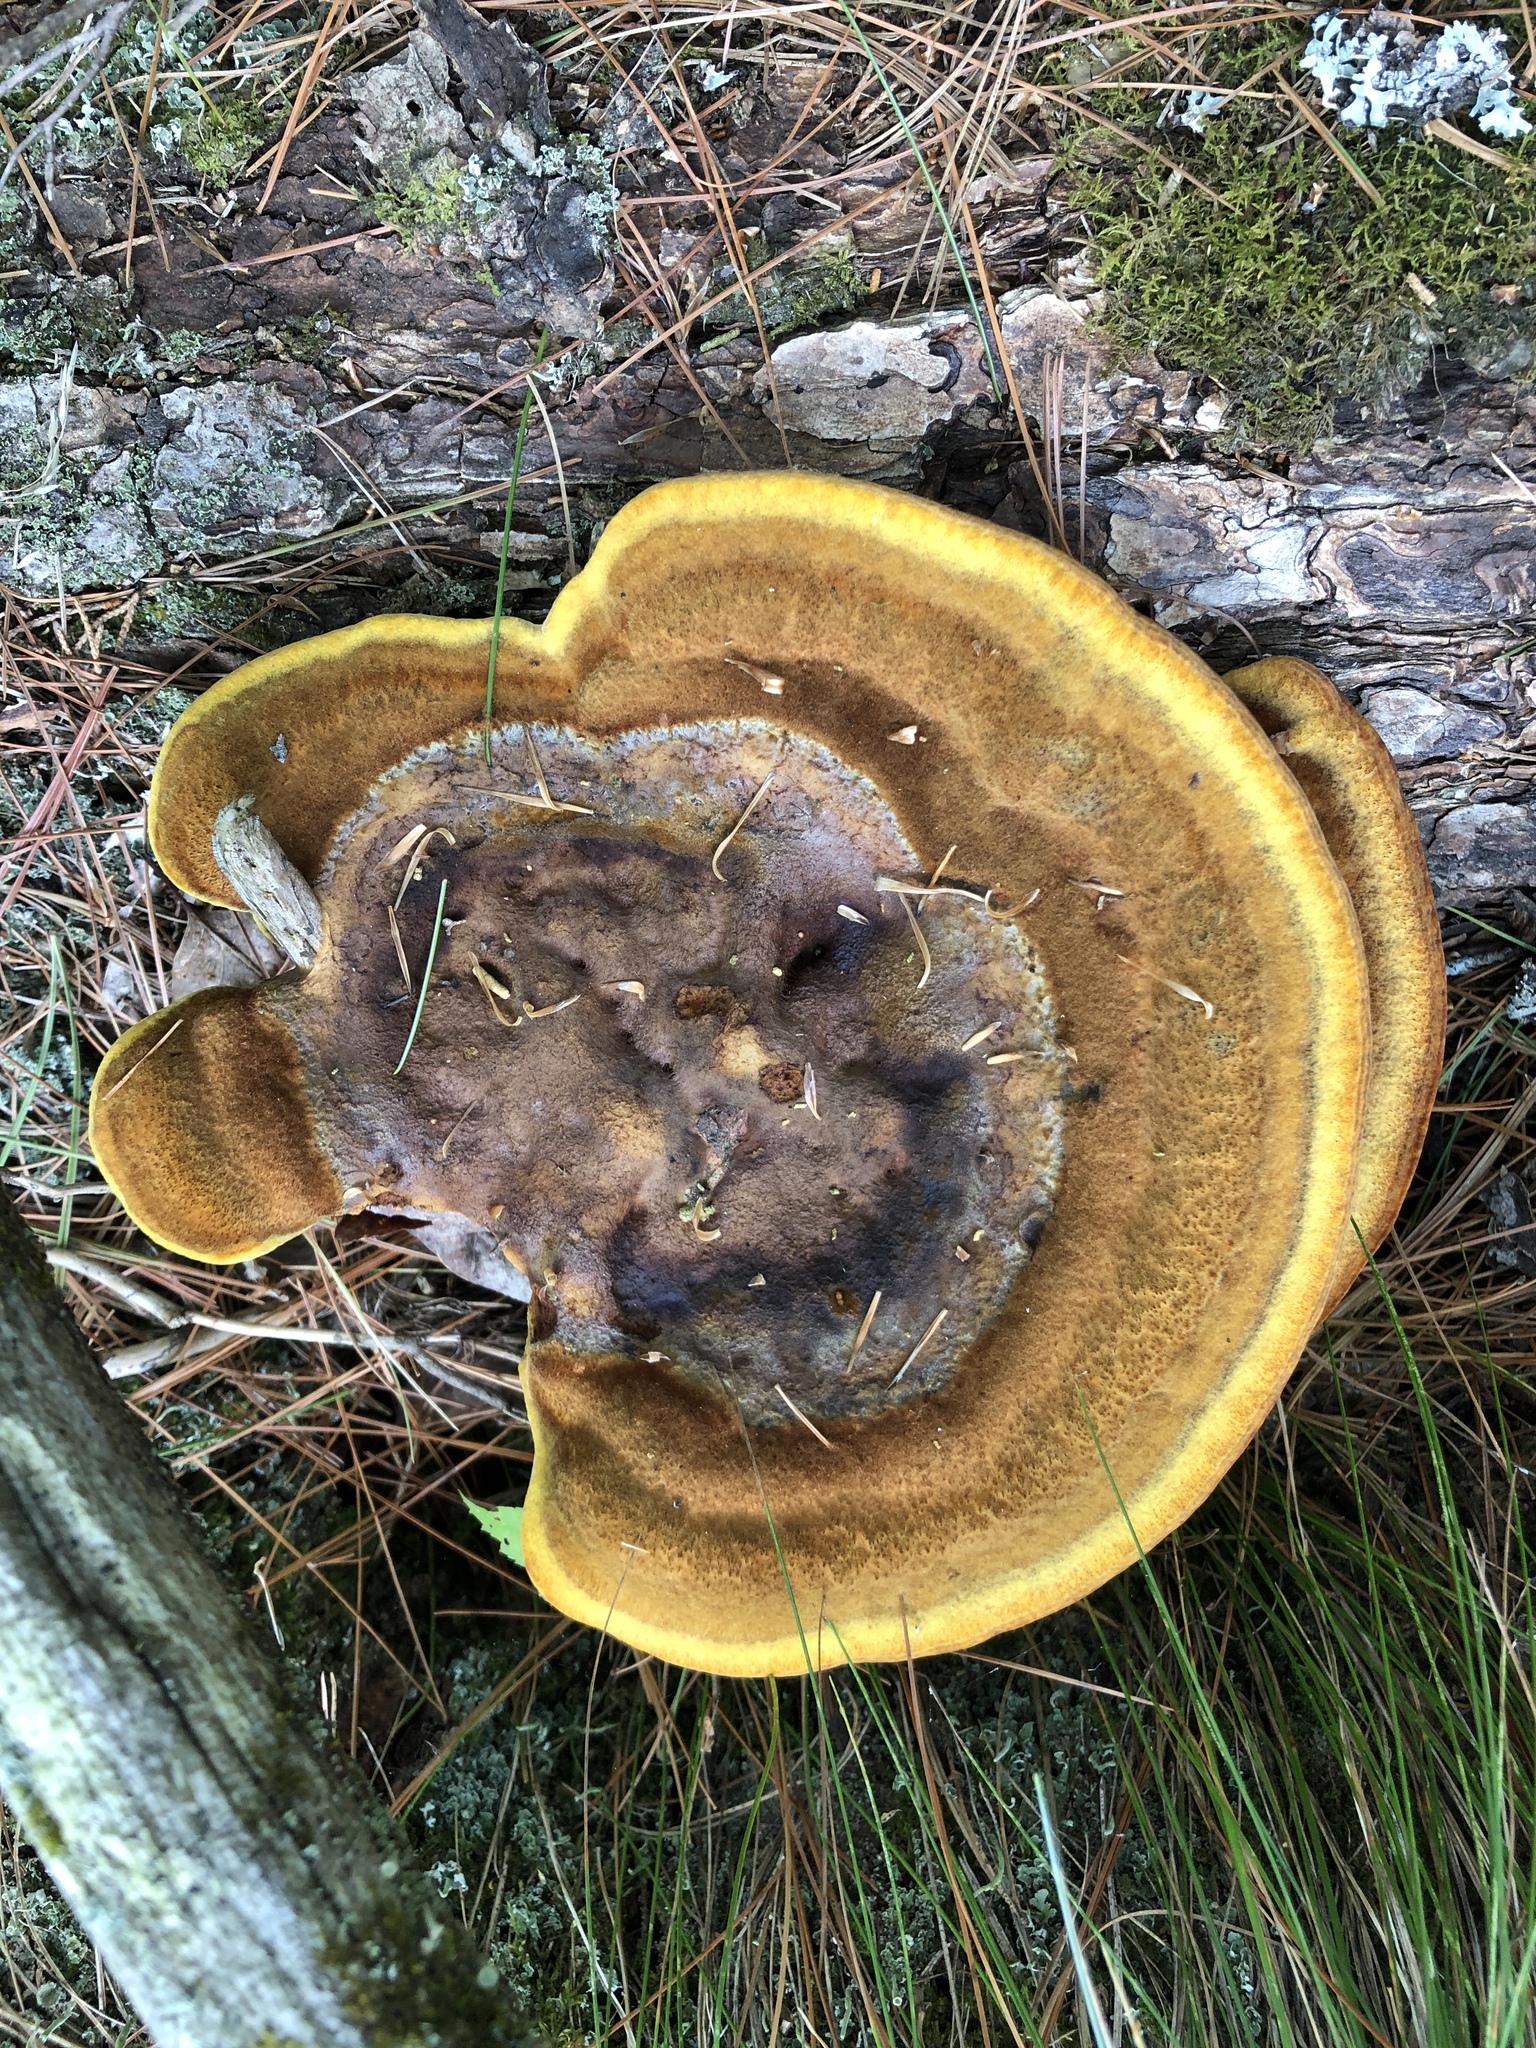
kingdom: Fungi
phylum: Basidiomycota
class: Agaricomycetes
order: Polyporales
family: Laetiporaceae
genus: Phaeolus
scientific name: Phaeolus schweinitzii
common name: Dyer's mazegill
